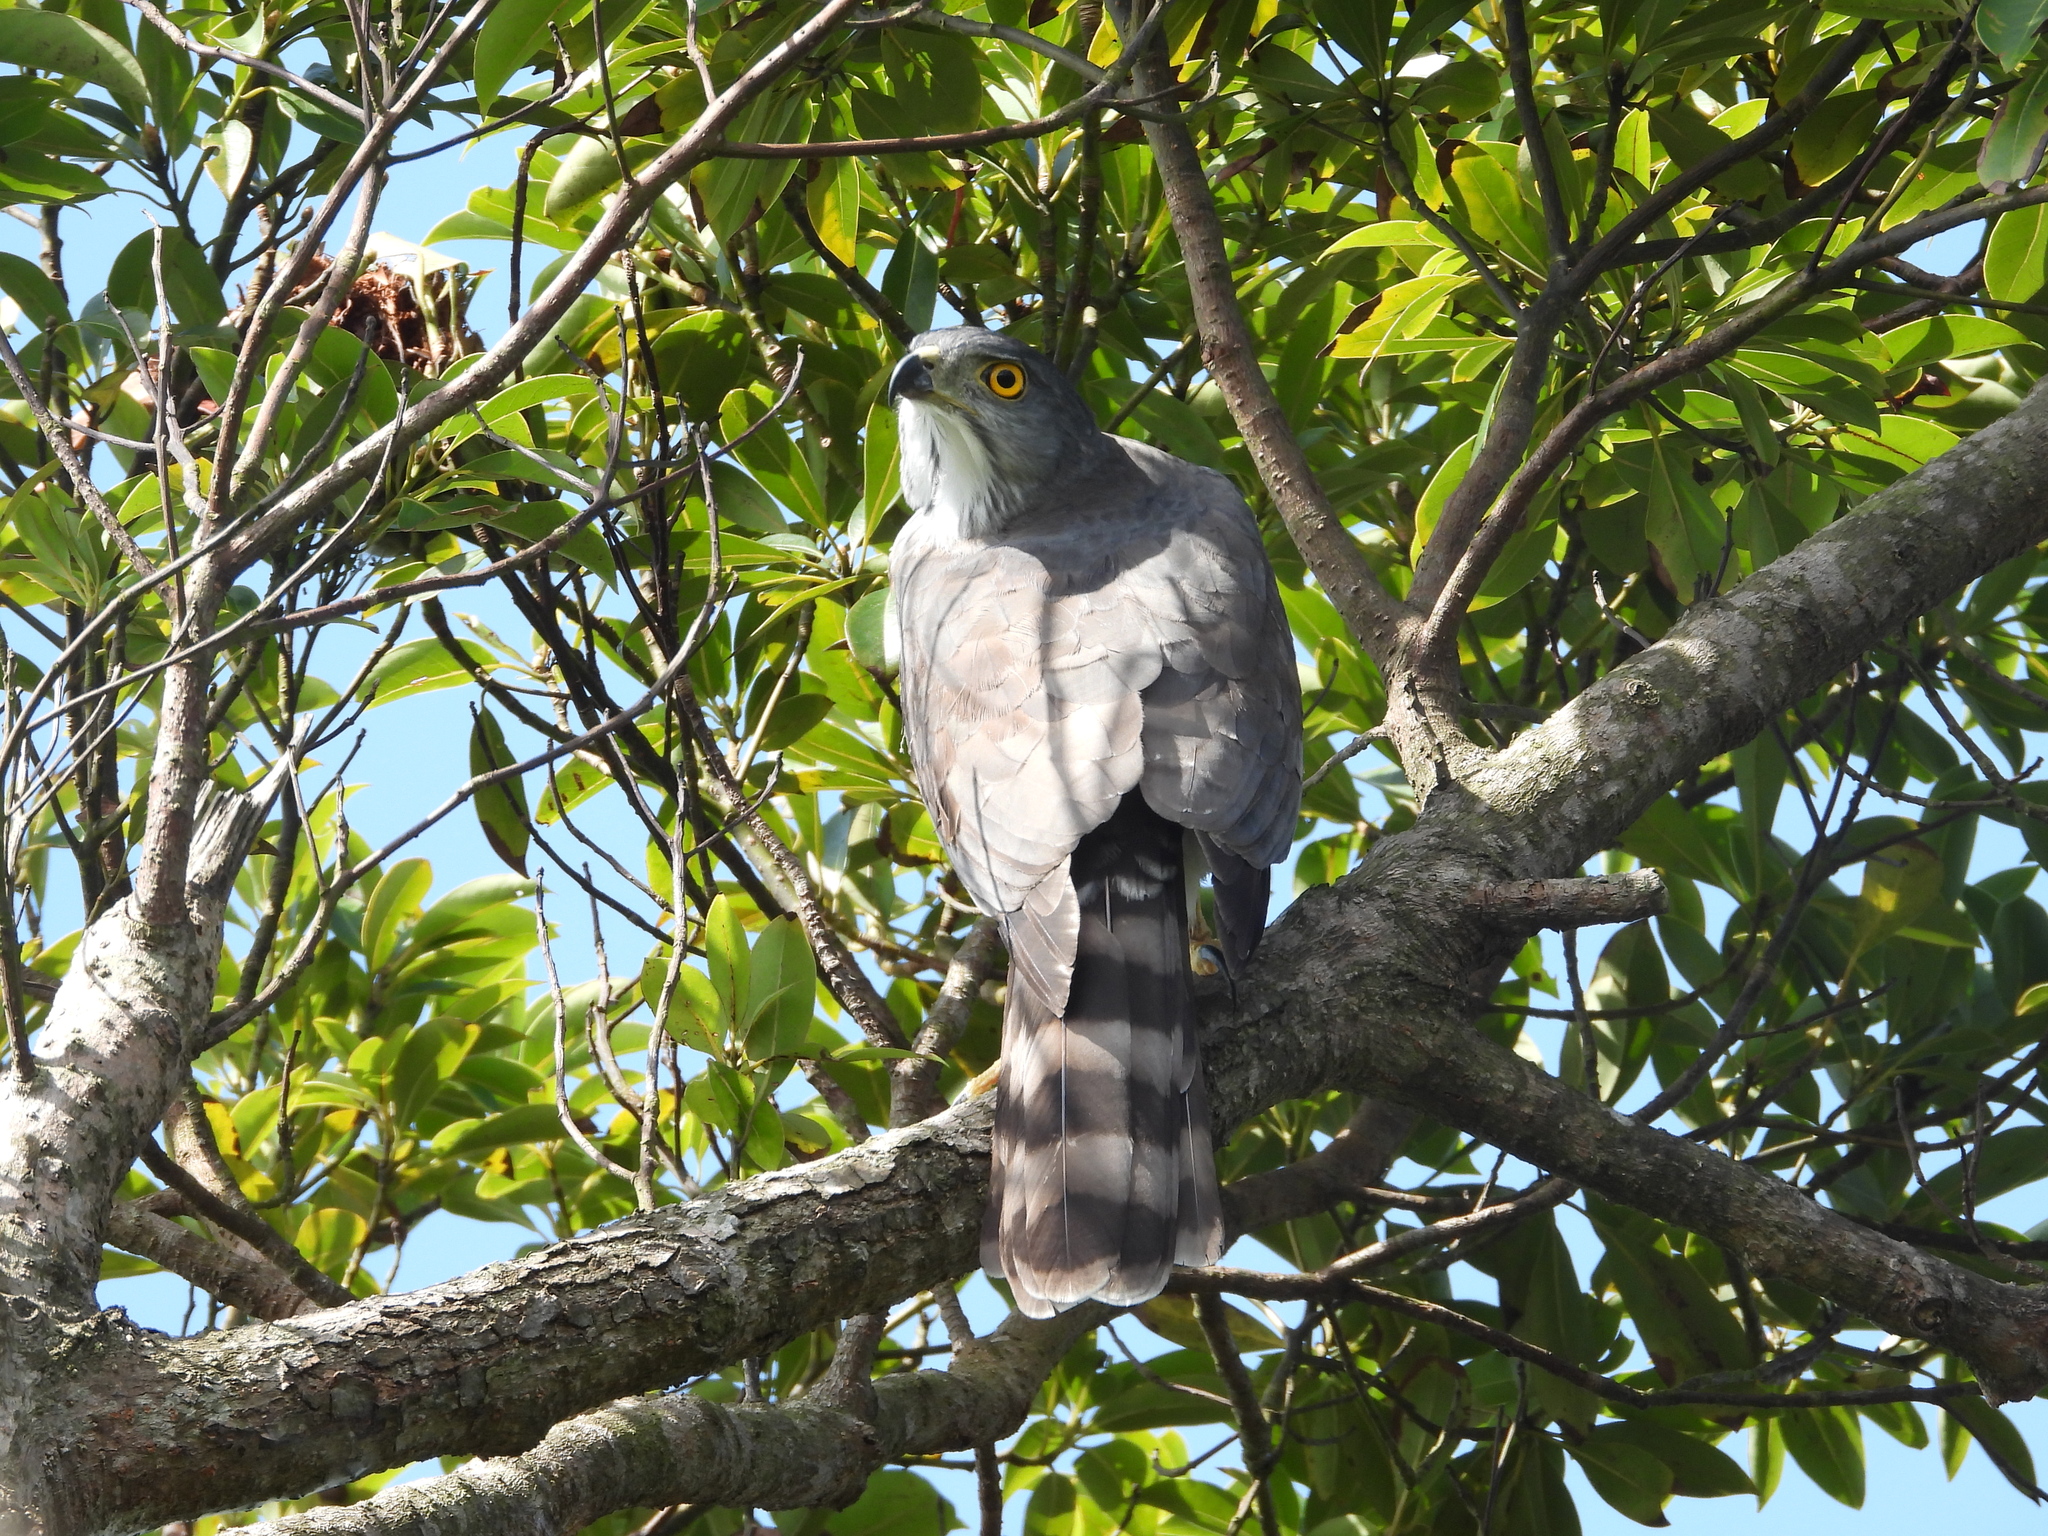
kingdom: Animalia
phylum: Chordata
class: Aves
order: Accipitriformes
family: Accipitridae
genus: Accipiter
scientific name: Accipiter trivirgatus
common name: Crested goshawk
